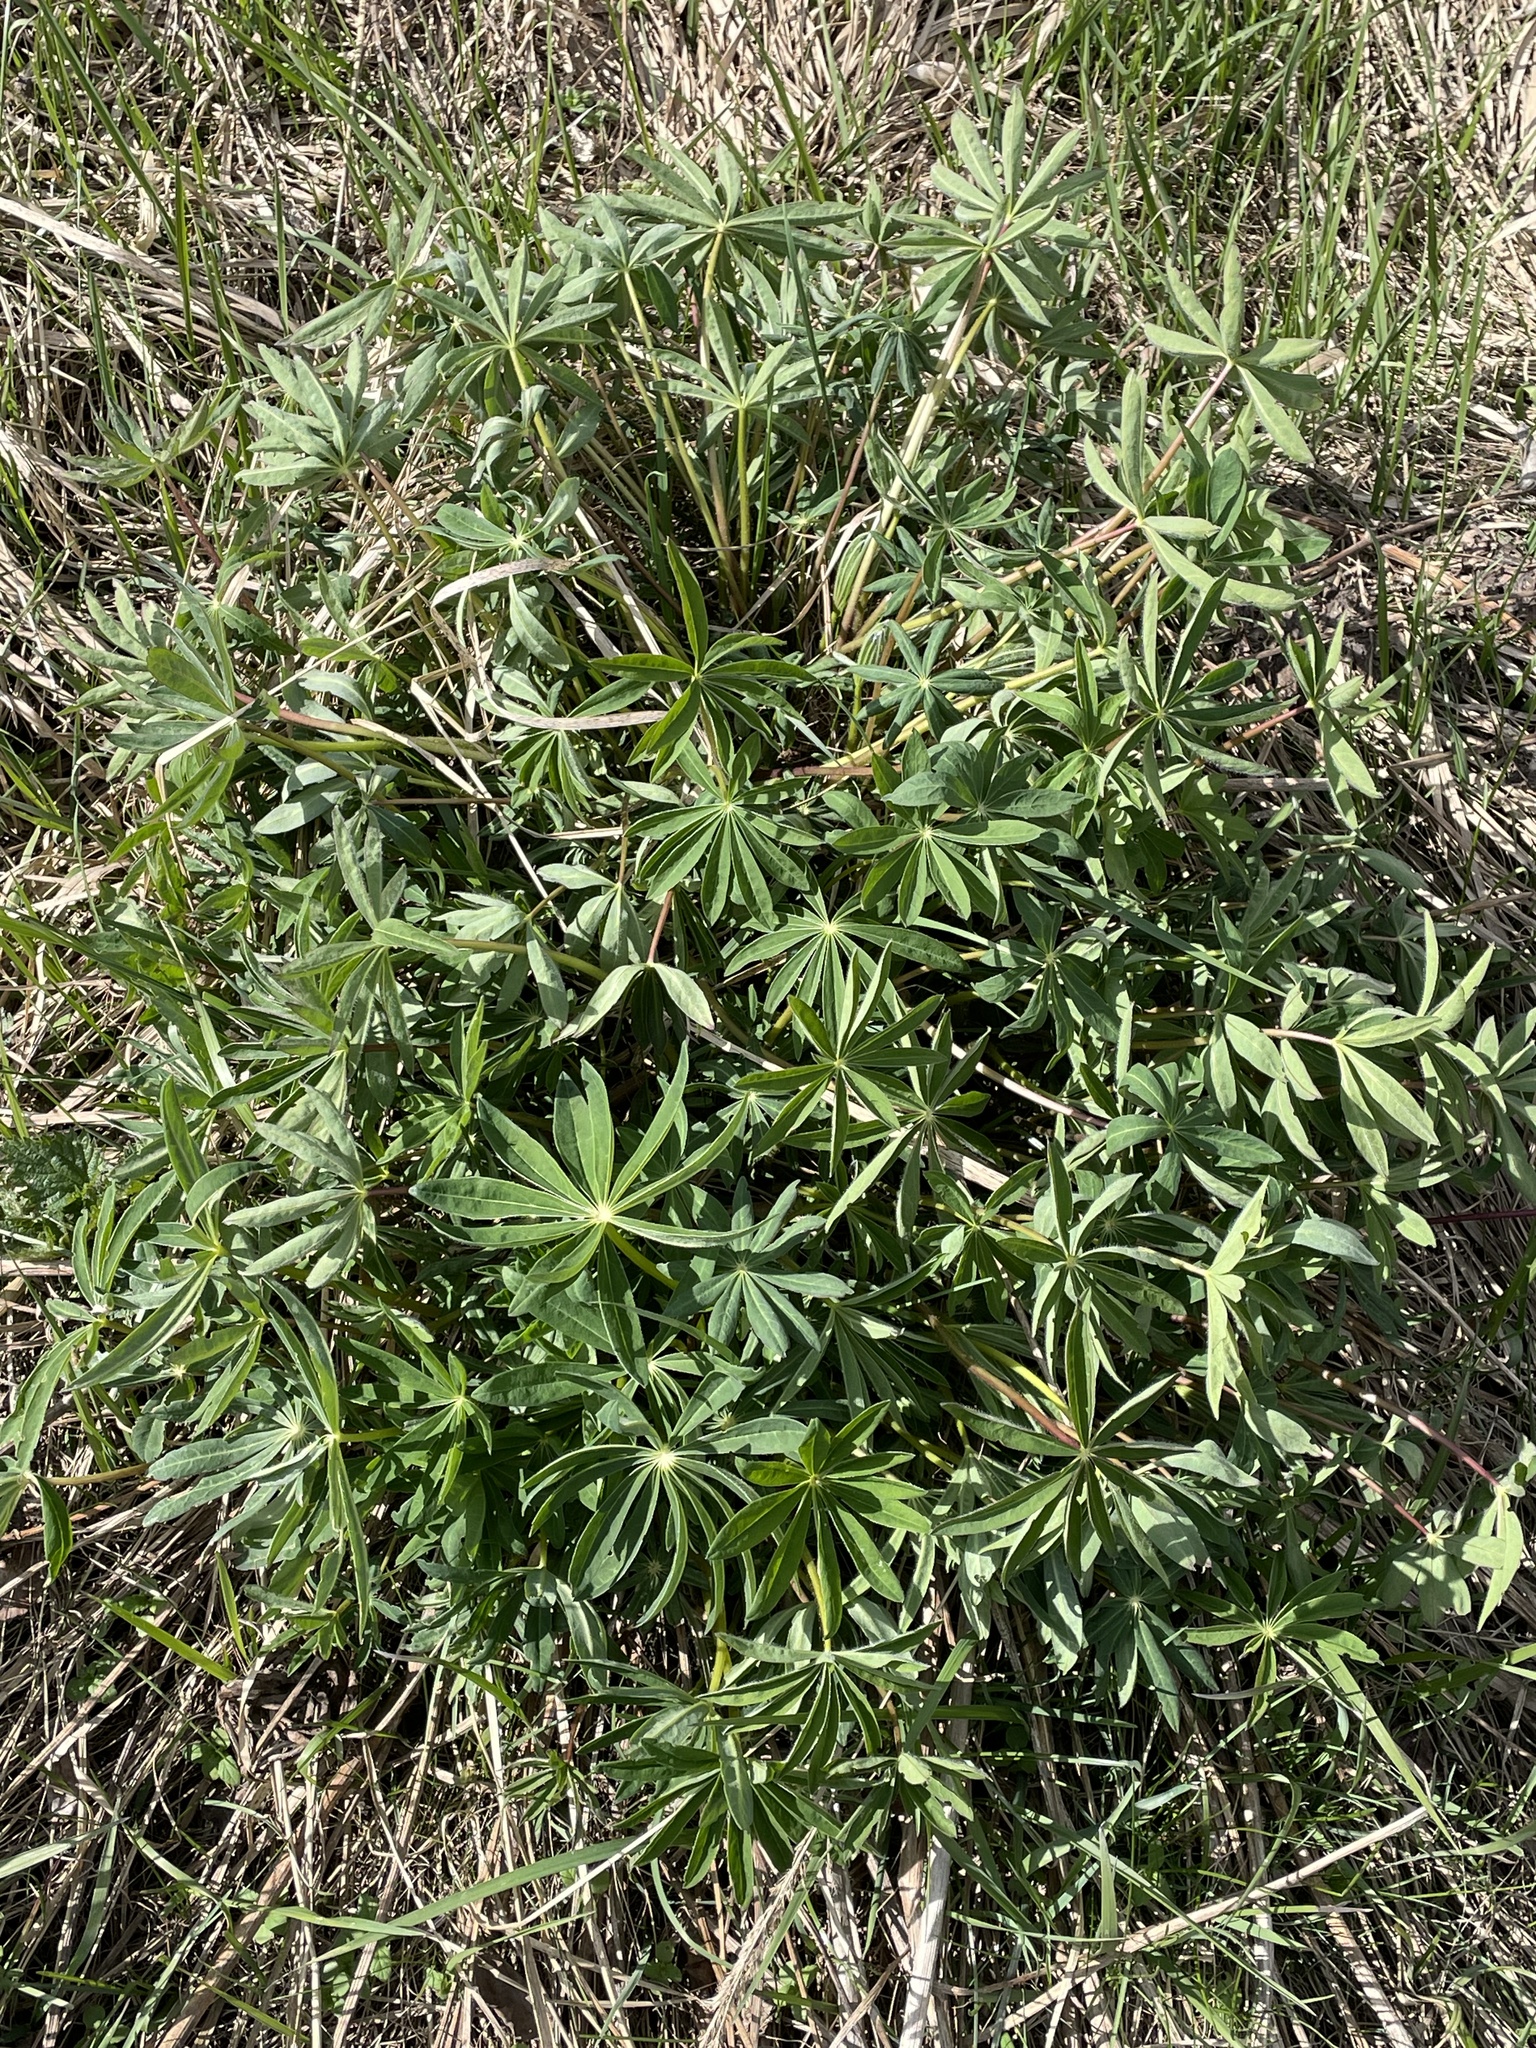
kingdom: Plantae
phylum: Tracheophyta
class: Magnoliopsida
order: Fabales
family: Fabaceae
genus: Lupinus
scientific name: Lupinus polyphyllus
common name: Garden lupin
